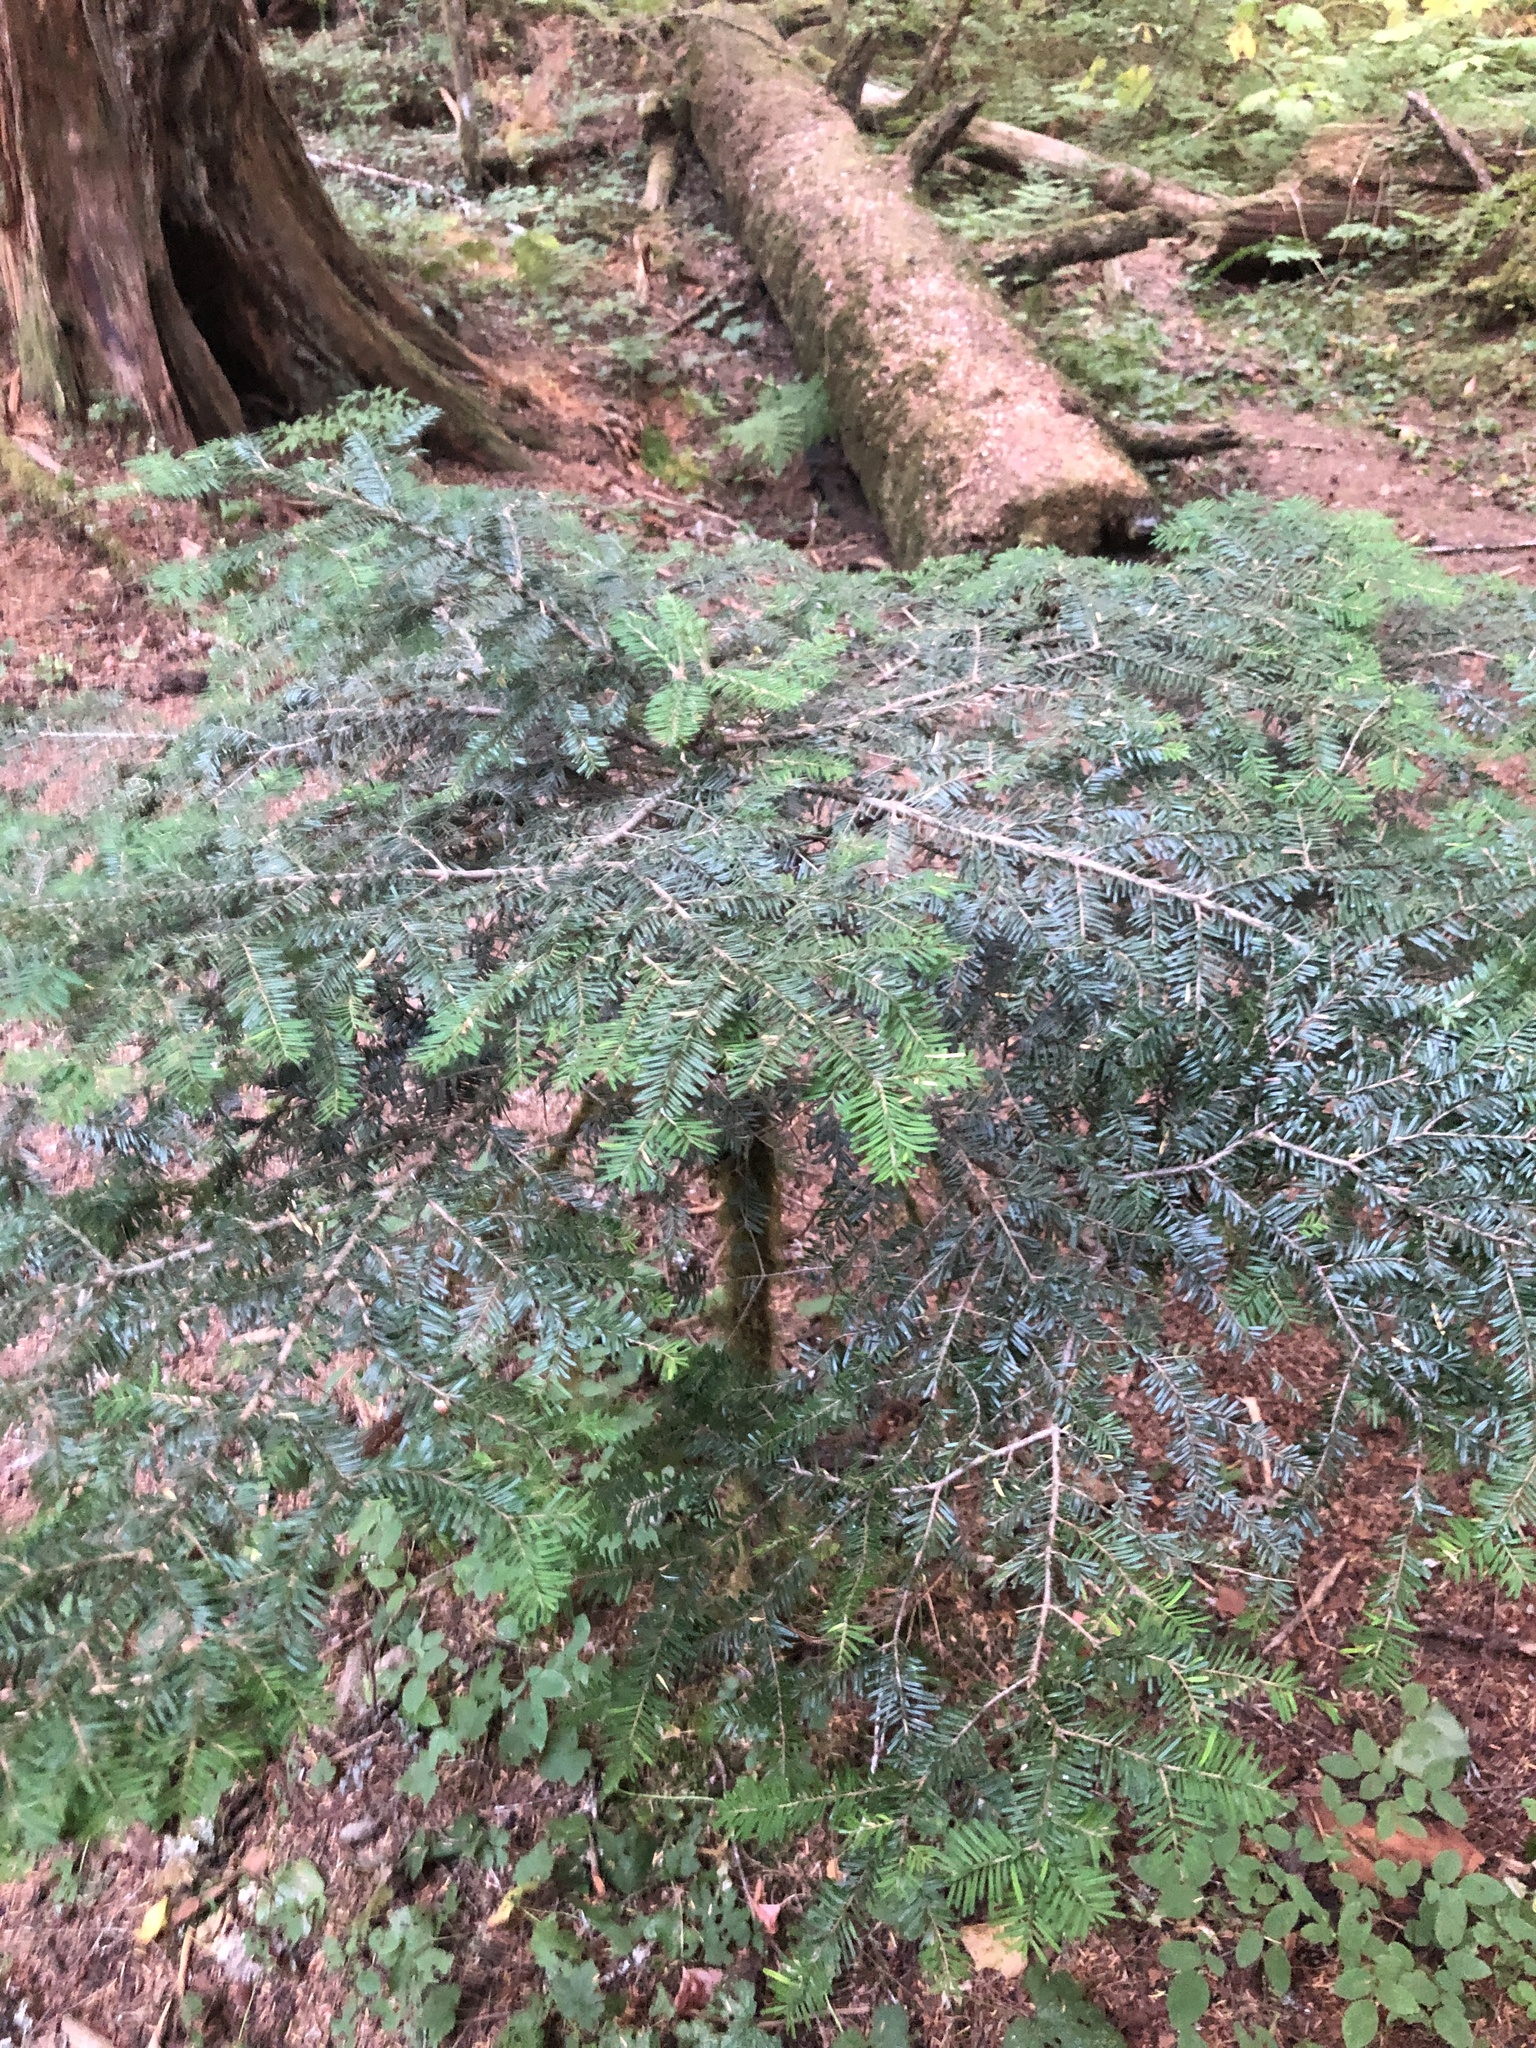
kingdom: Plantae
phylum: Tracheophyta
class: Pinopsida
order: Pinales
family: Pinaceae
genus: Abies
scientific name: Abies amabilis
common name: Pacific silver fir
